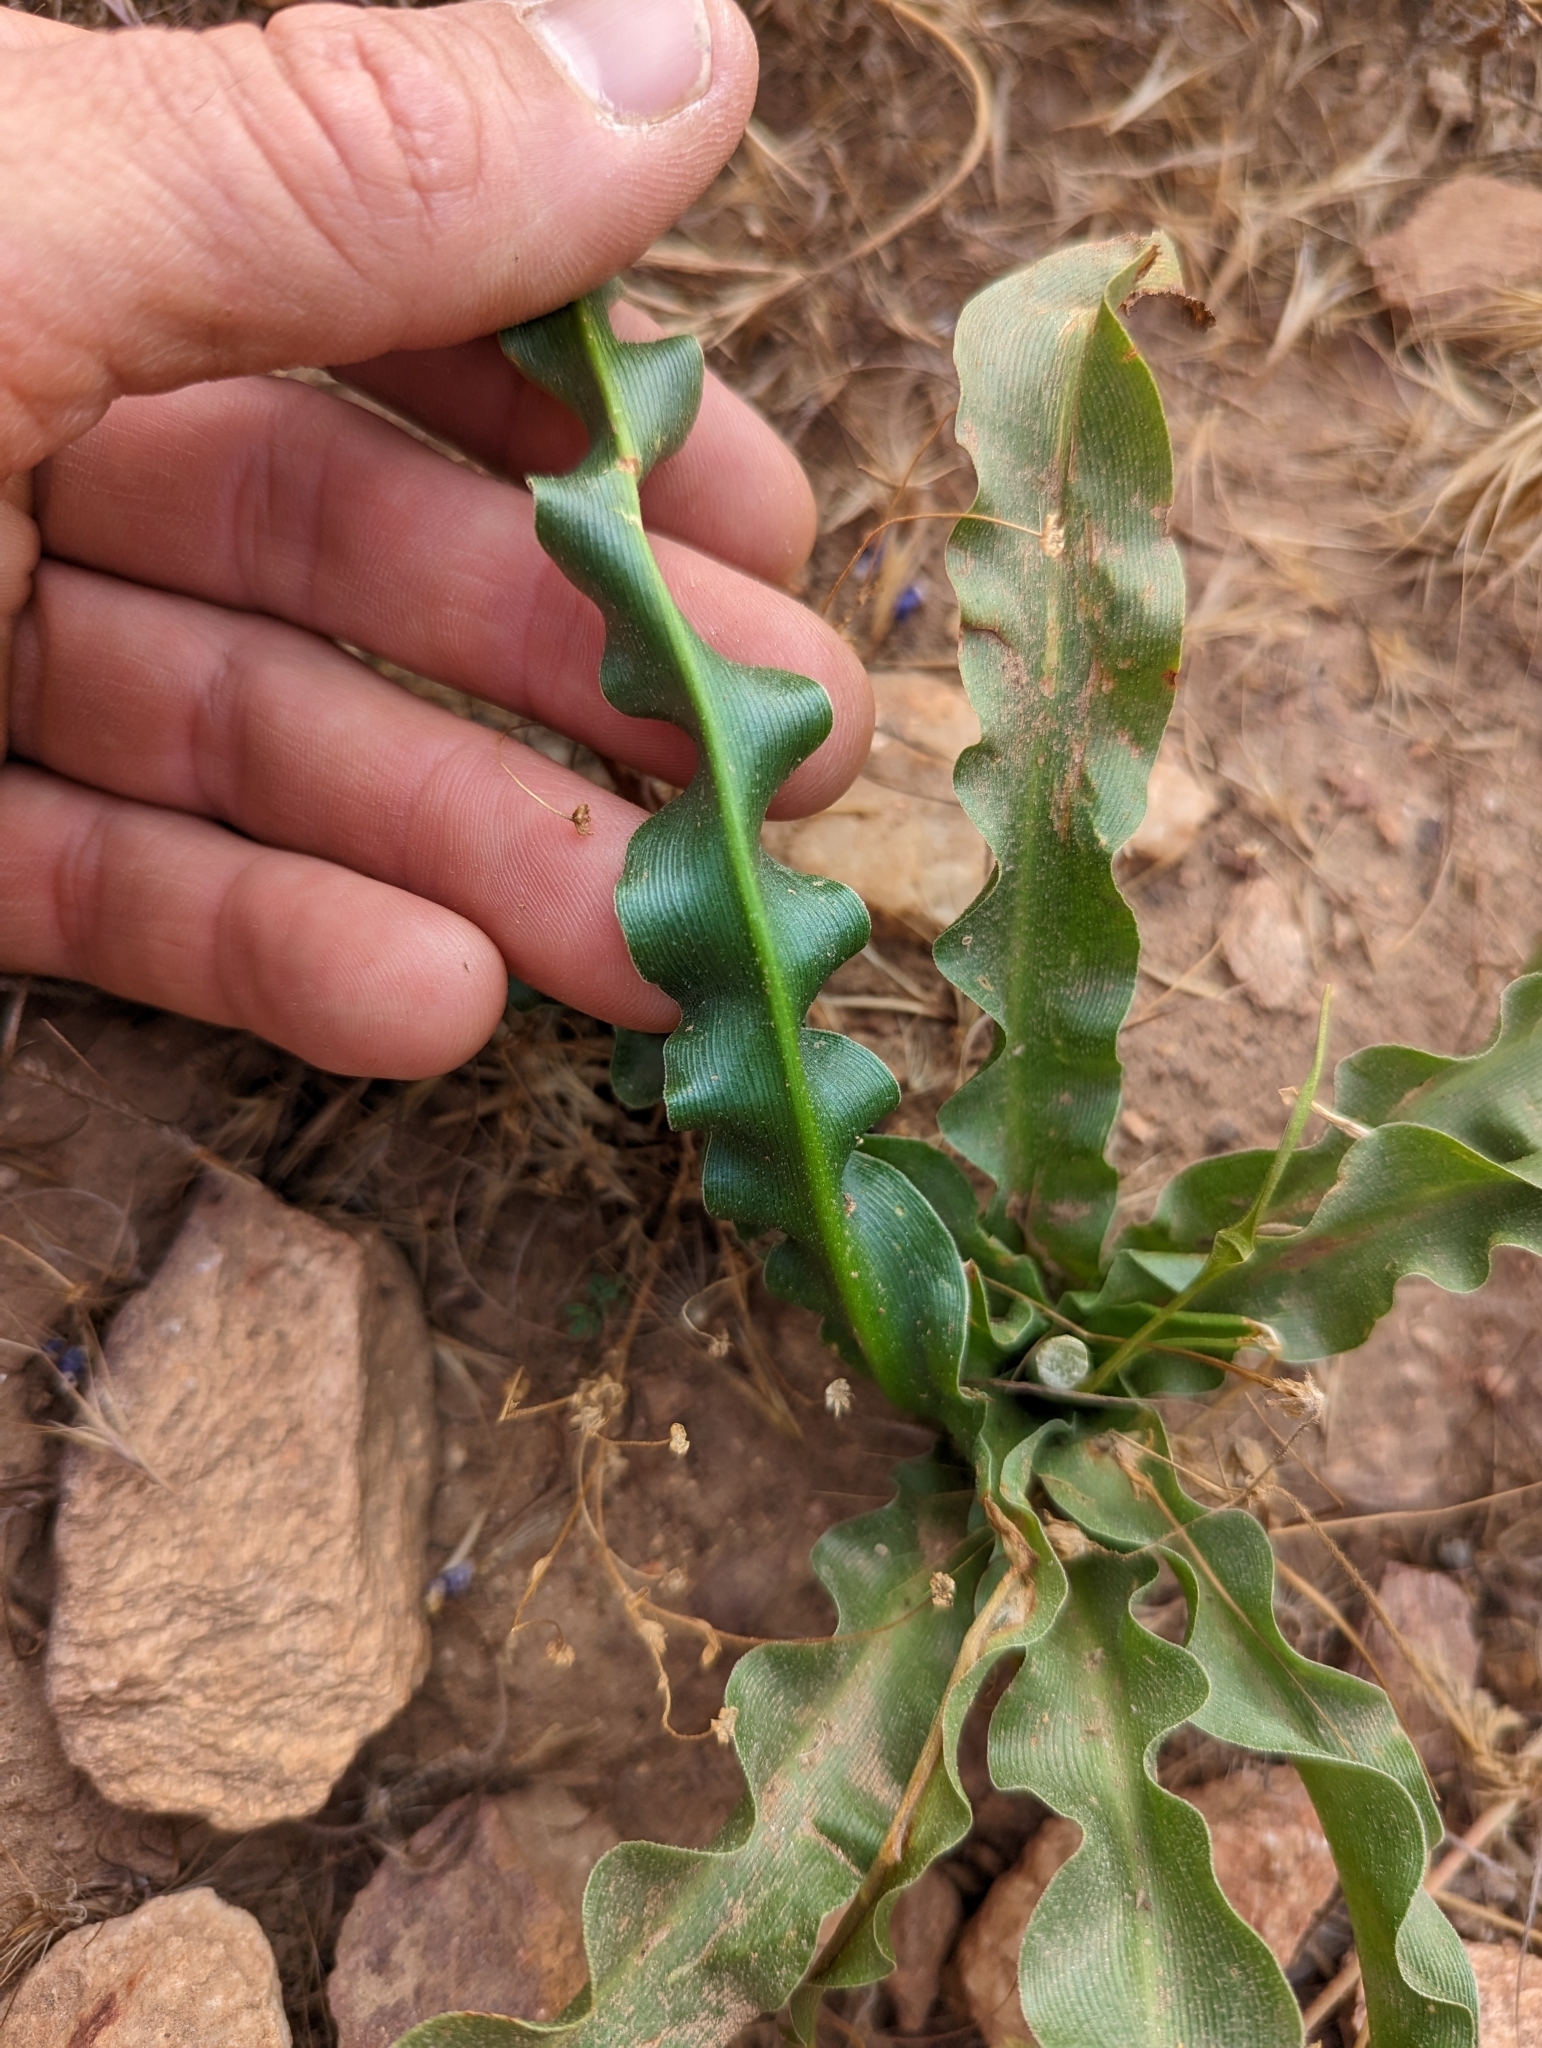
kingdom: Plantae
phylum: Tracheophyta
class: Liliopsida
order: Asparagales
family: Asparagaceae
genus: Hooveria
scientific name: Hooveria parviflora
